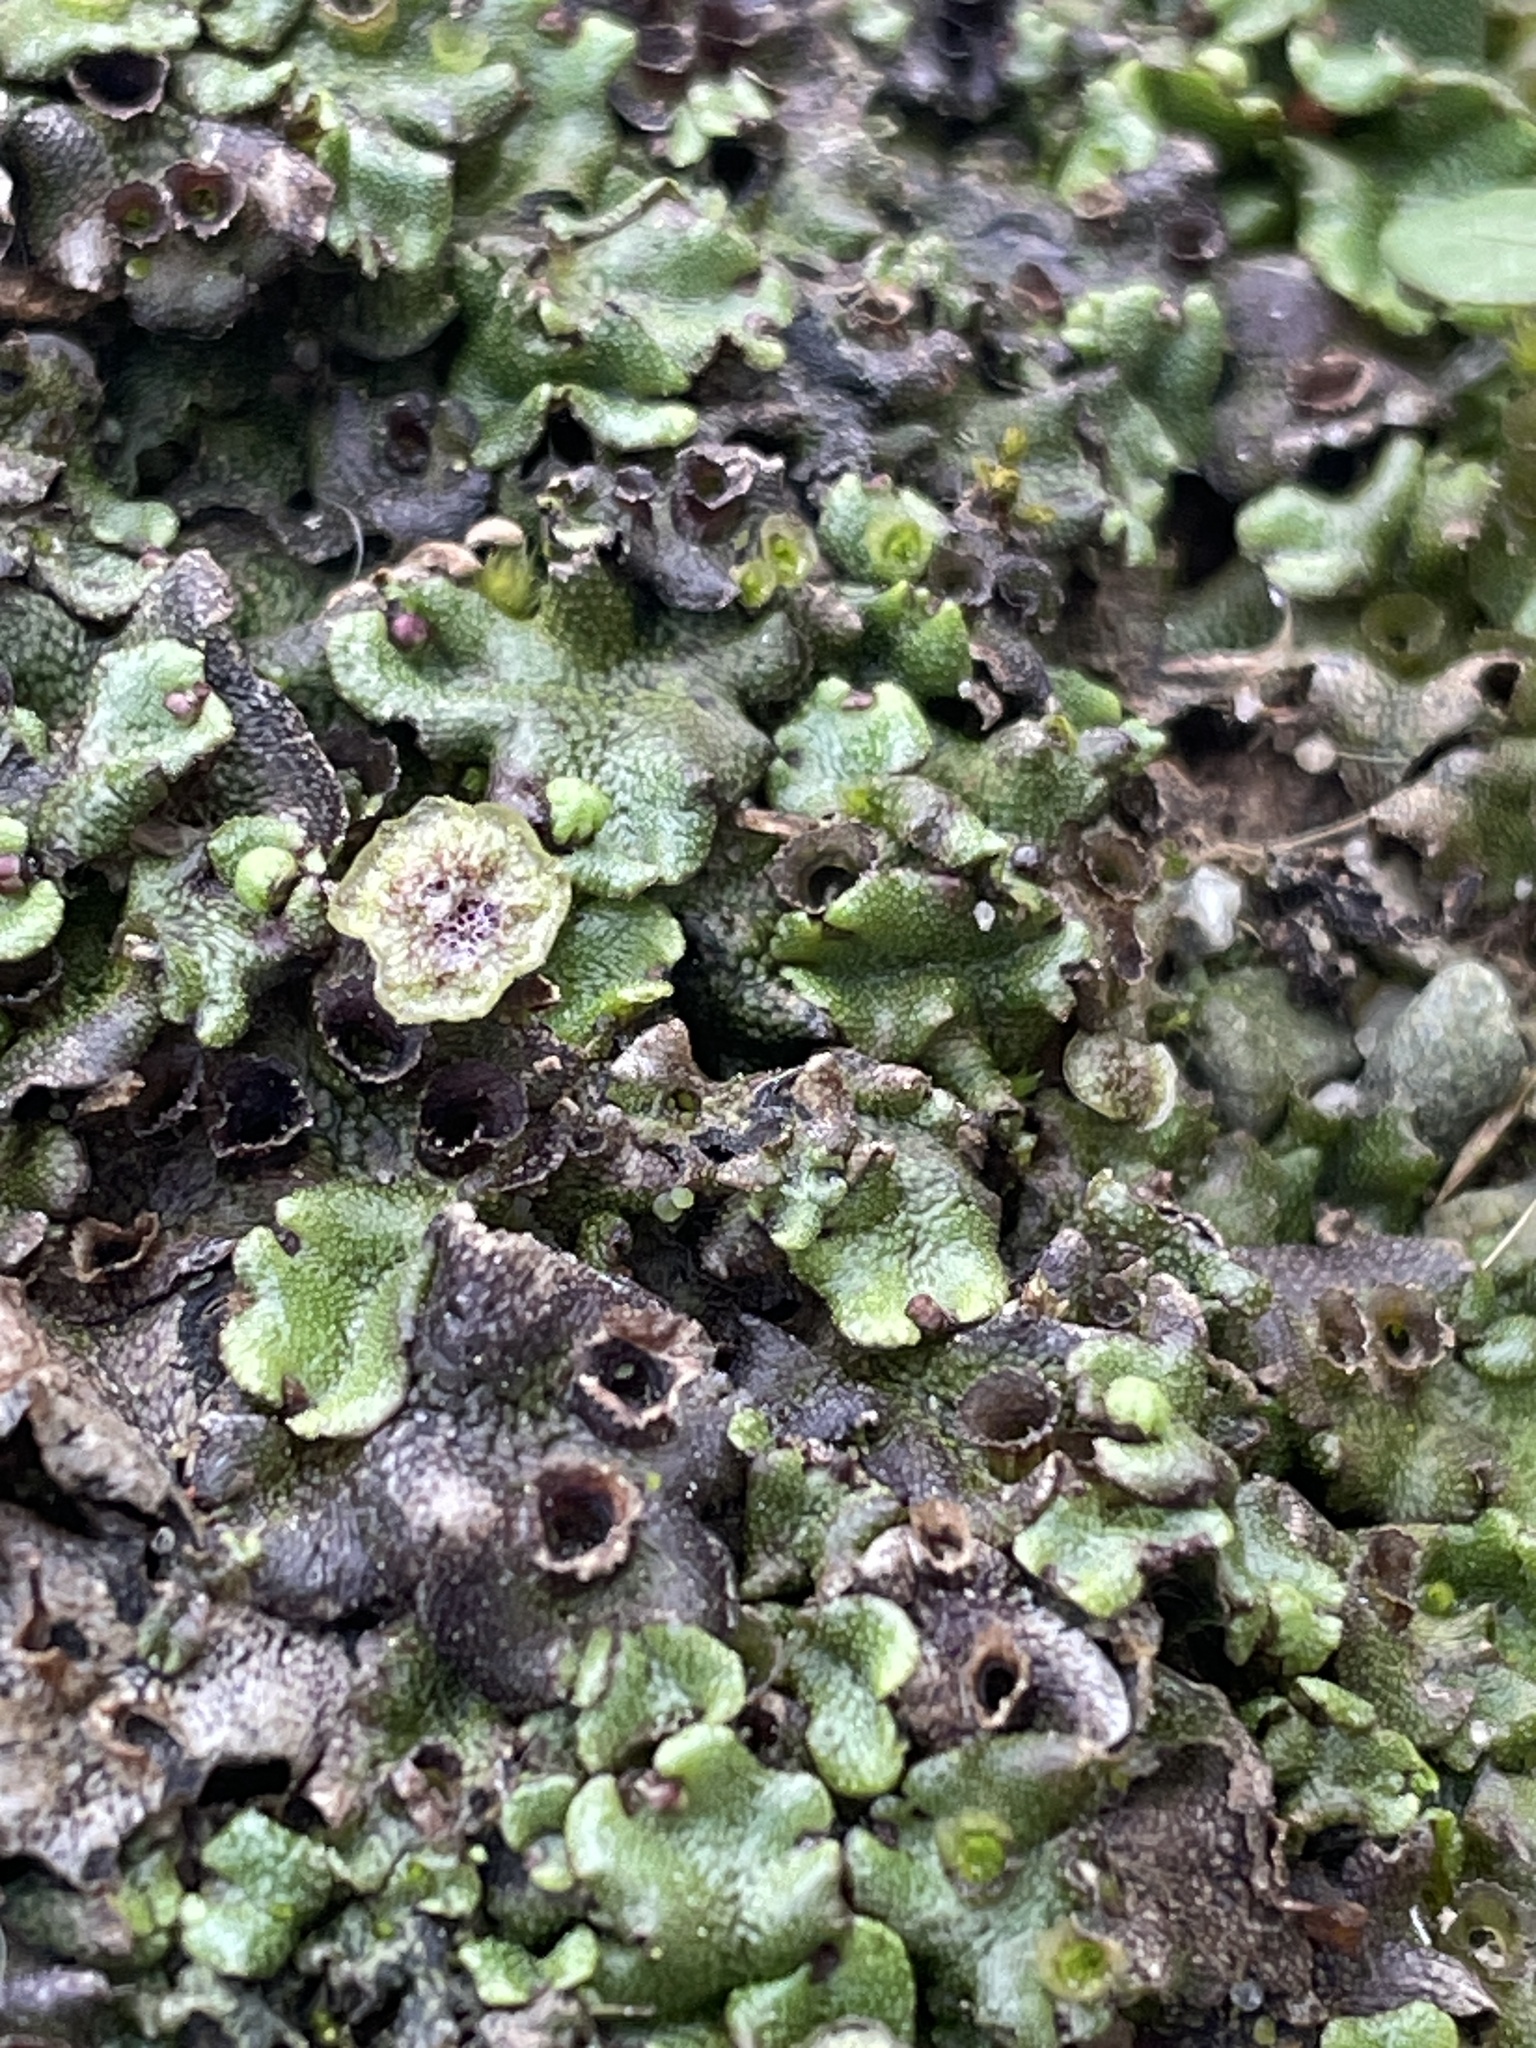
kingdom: Plantae
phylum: Marchantiophyta
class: Marchantiopsida
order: Marchantiales
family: Marchantiaceae
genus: Marchantia
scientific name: Marchantia polymorpha
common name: Common liverwort
